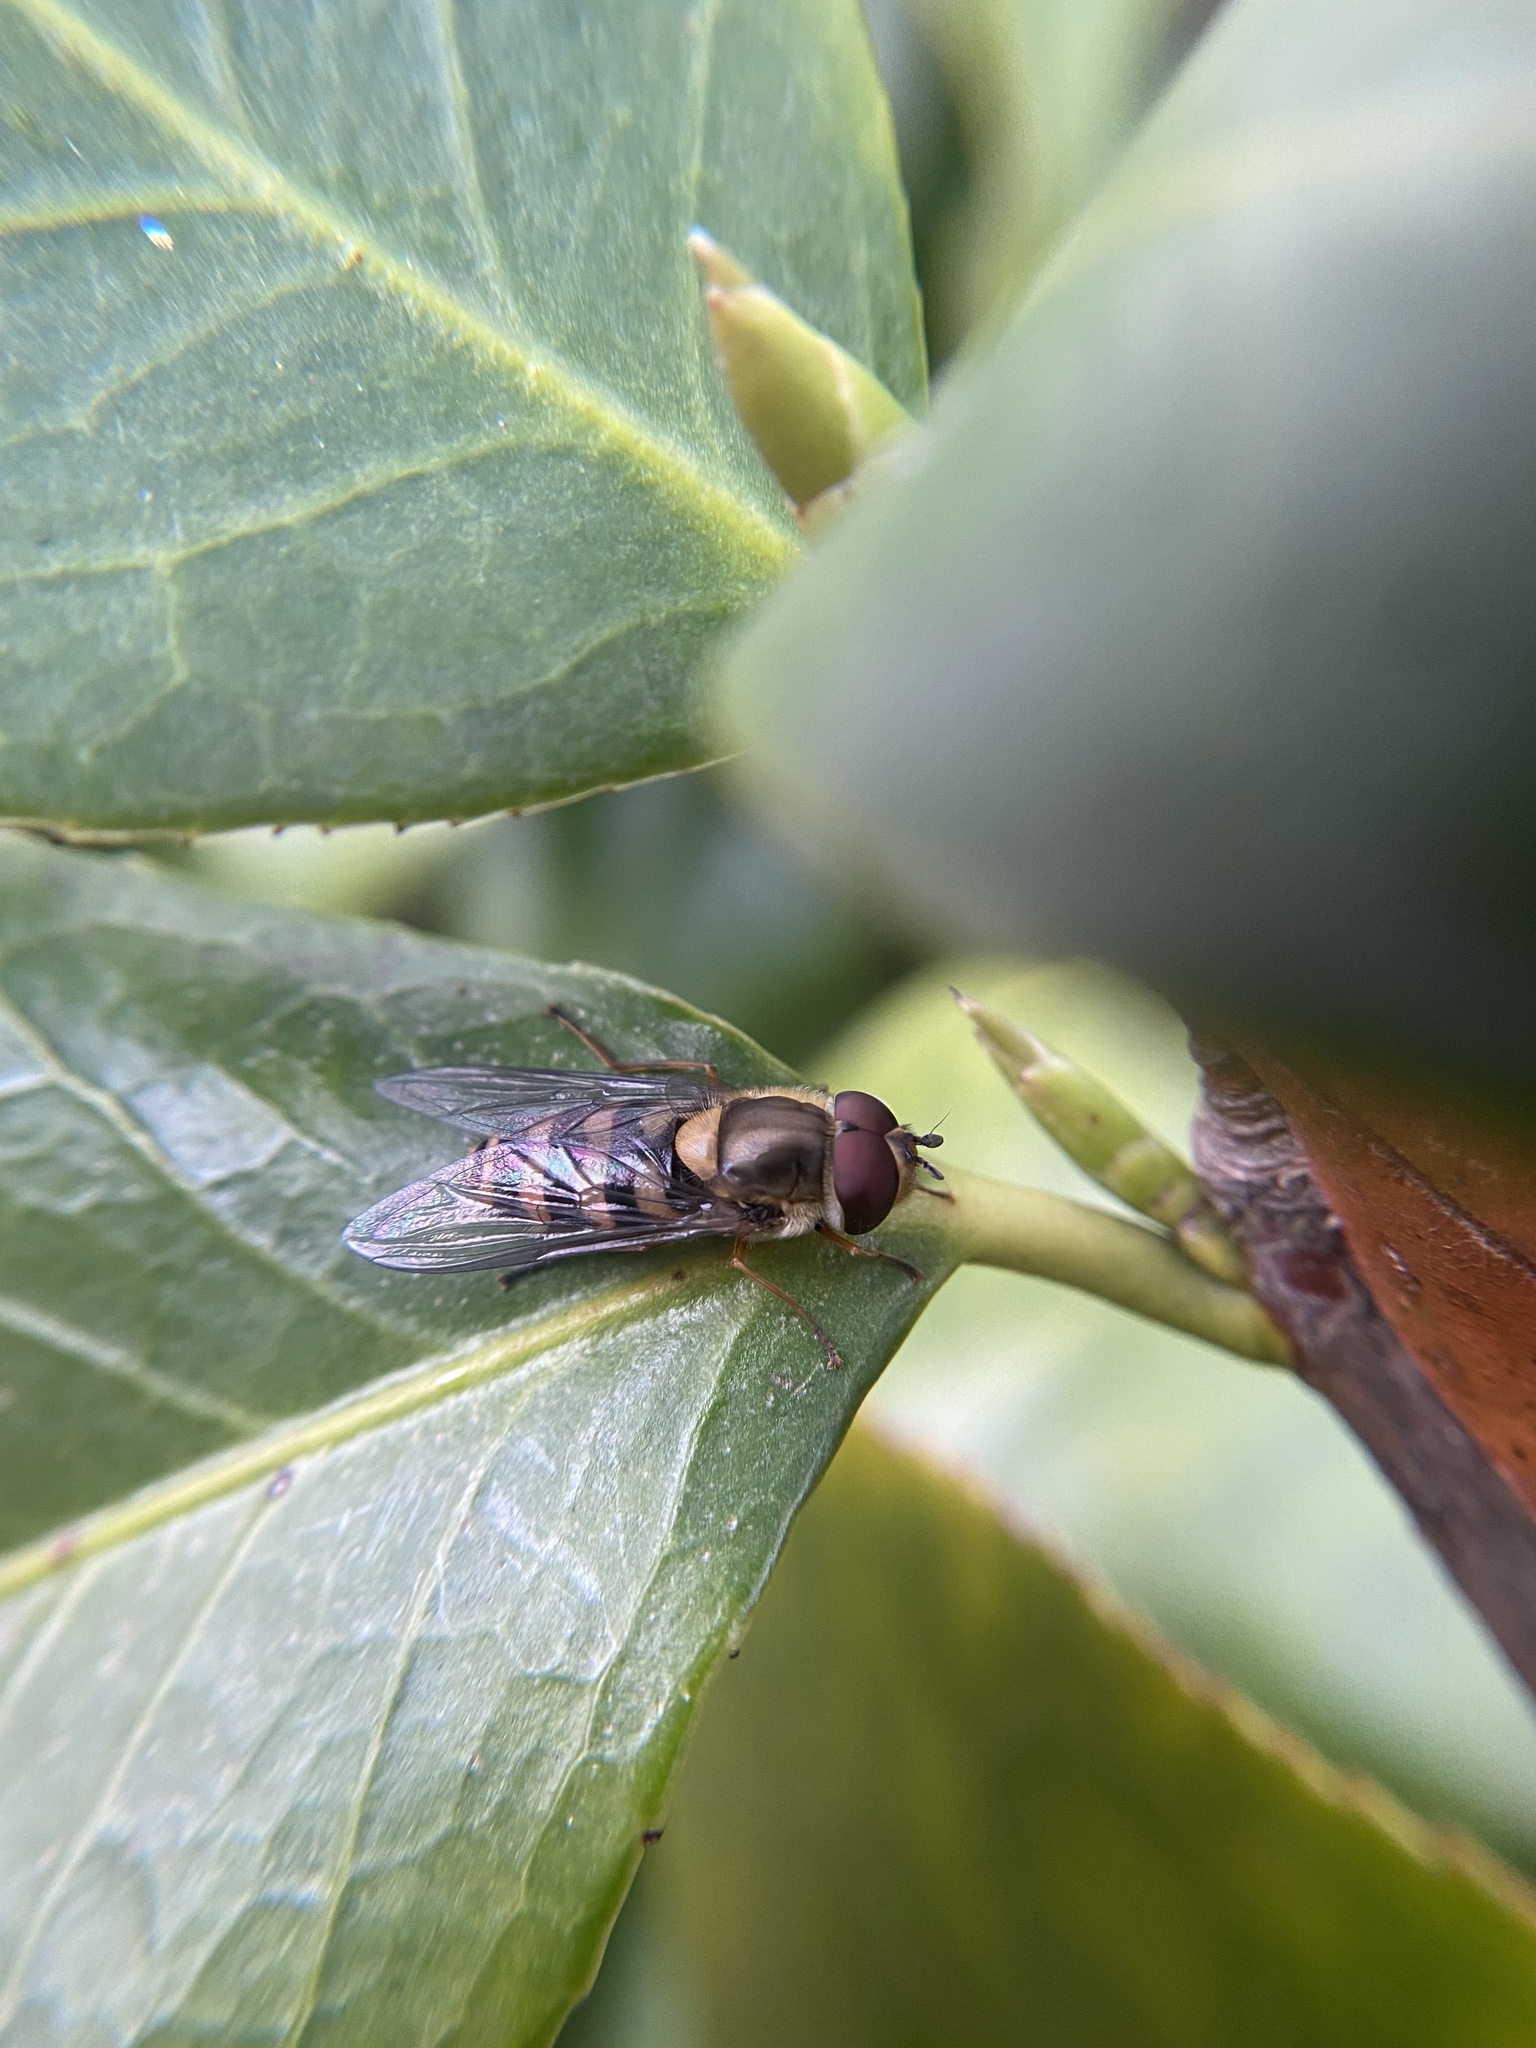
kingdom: Animalia
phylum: Arthropoda
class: Insecta
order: Diptera
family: Syrphidae
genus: Syrphus
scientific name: Syrphus
